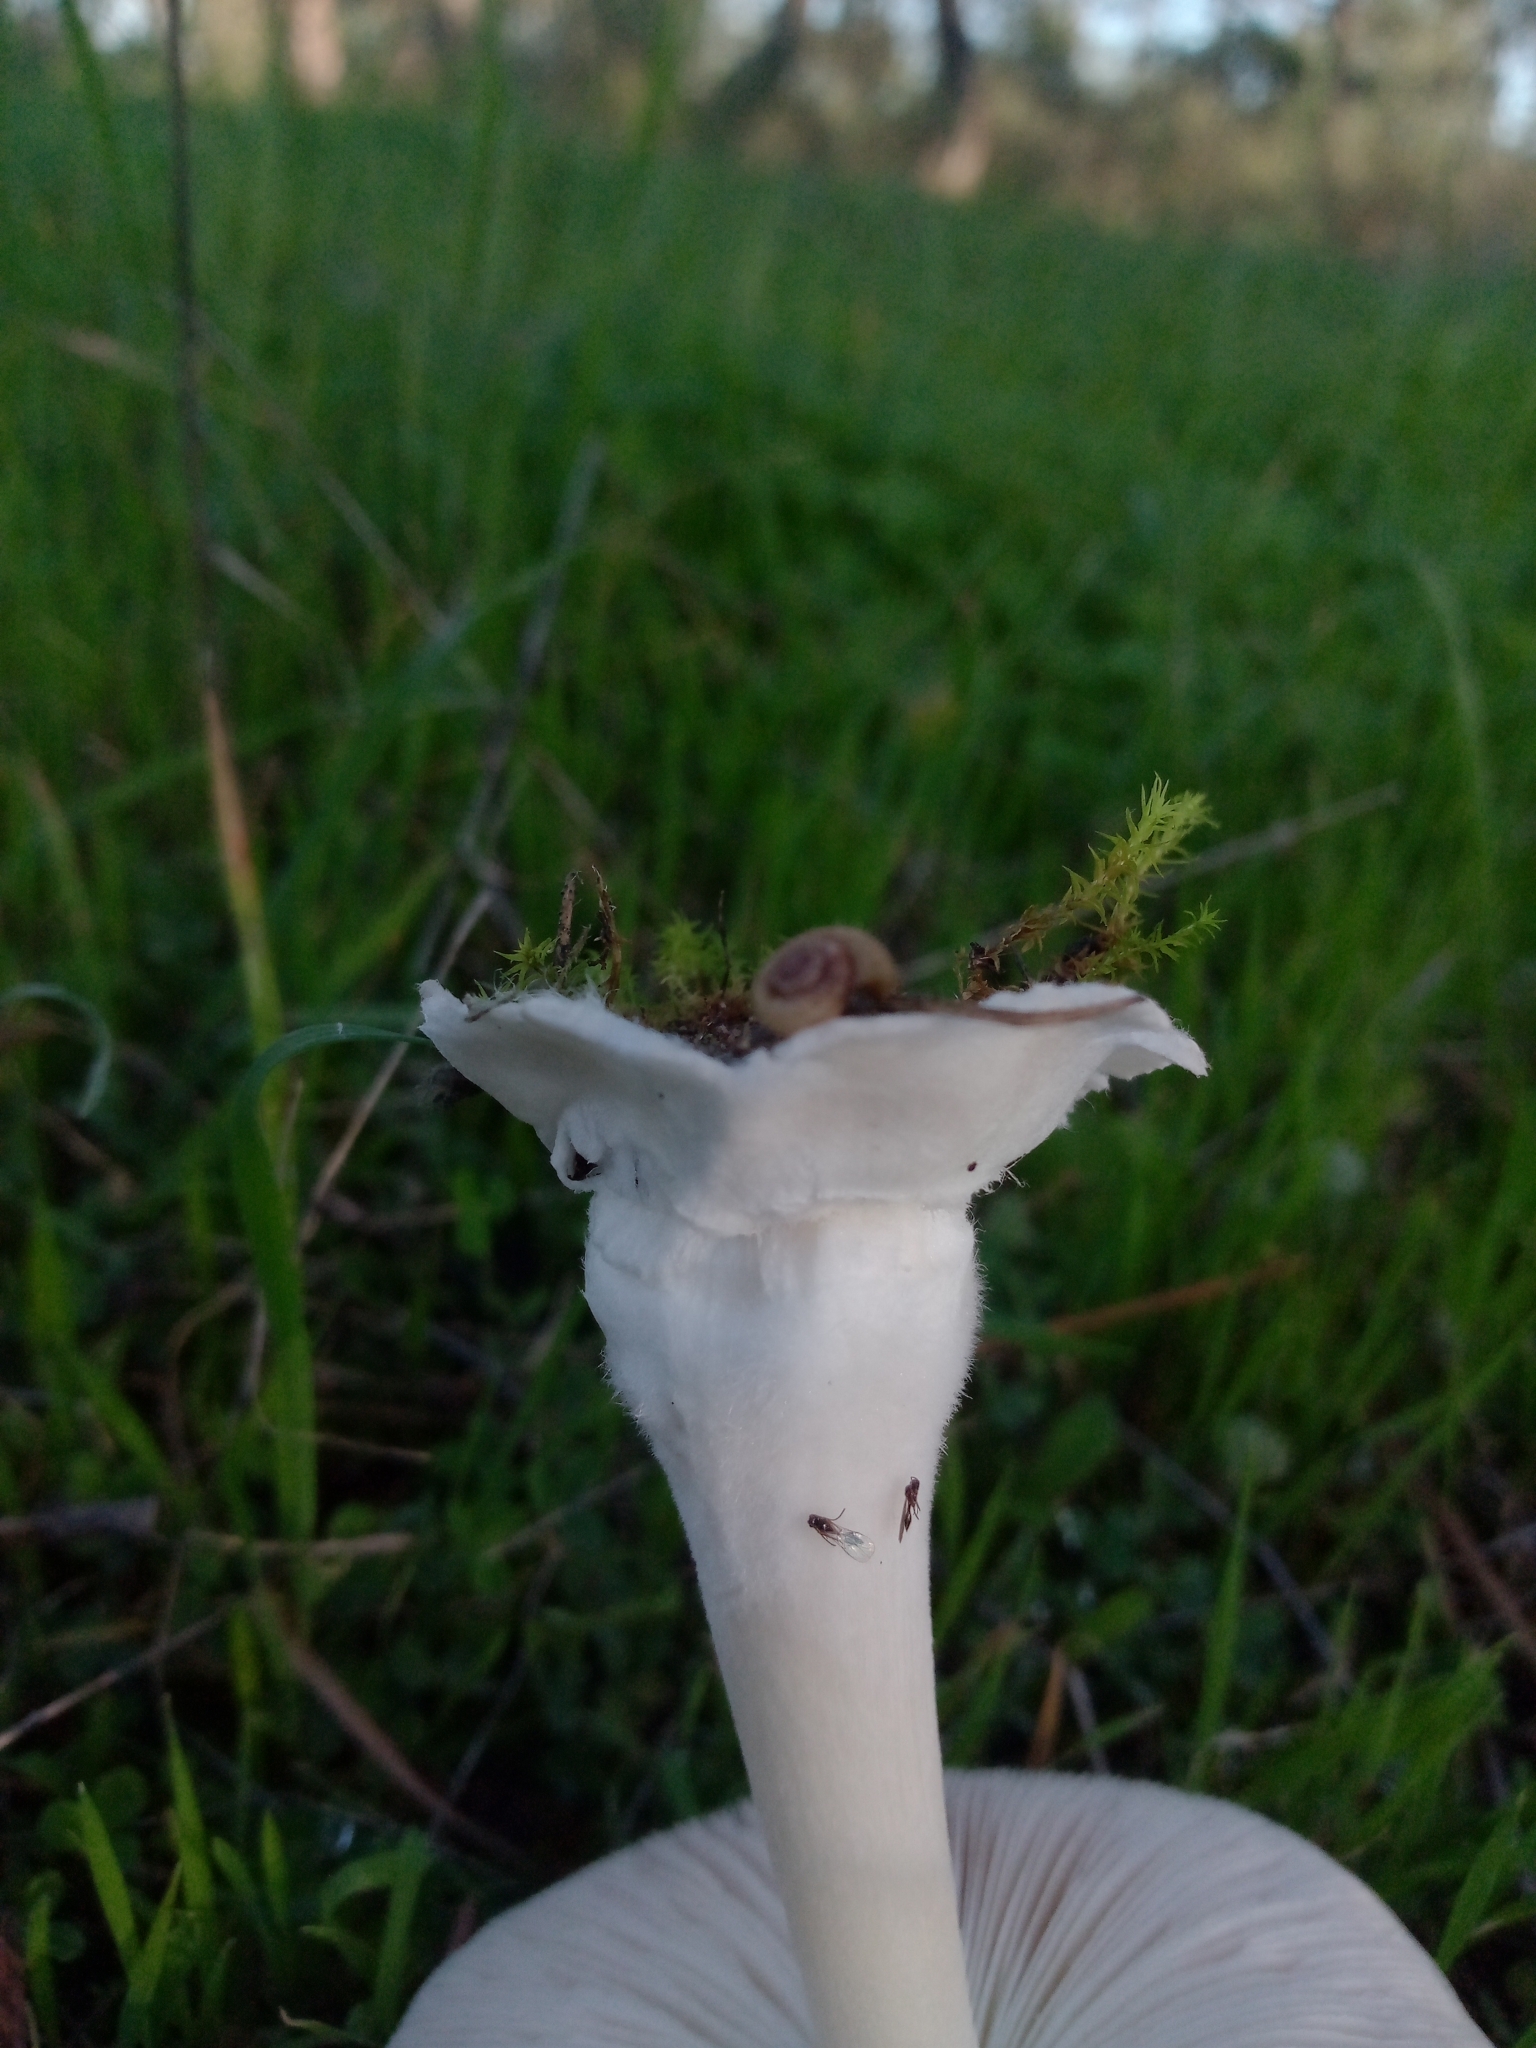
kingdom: Fungi
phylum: Basidiomycota
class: Agaricomycetes
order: Agaricales
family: Pluteaceae
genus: Volvopluteus
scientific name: Volvopluteus gloiocephalus
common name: Stubble rosegill
